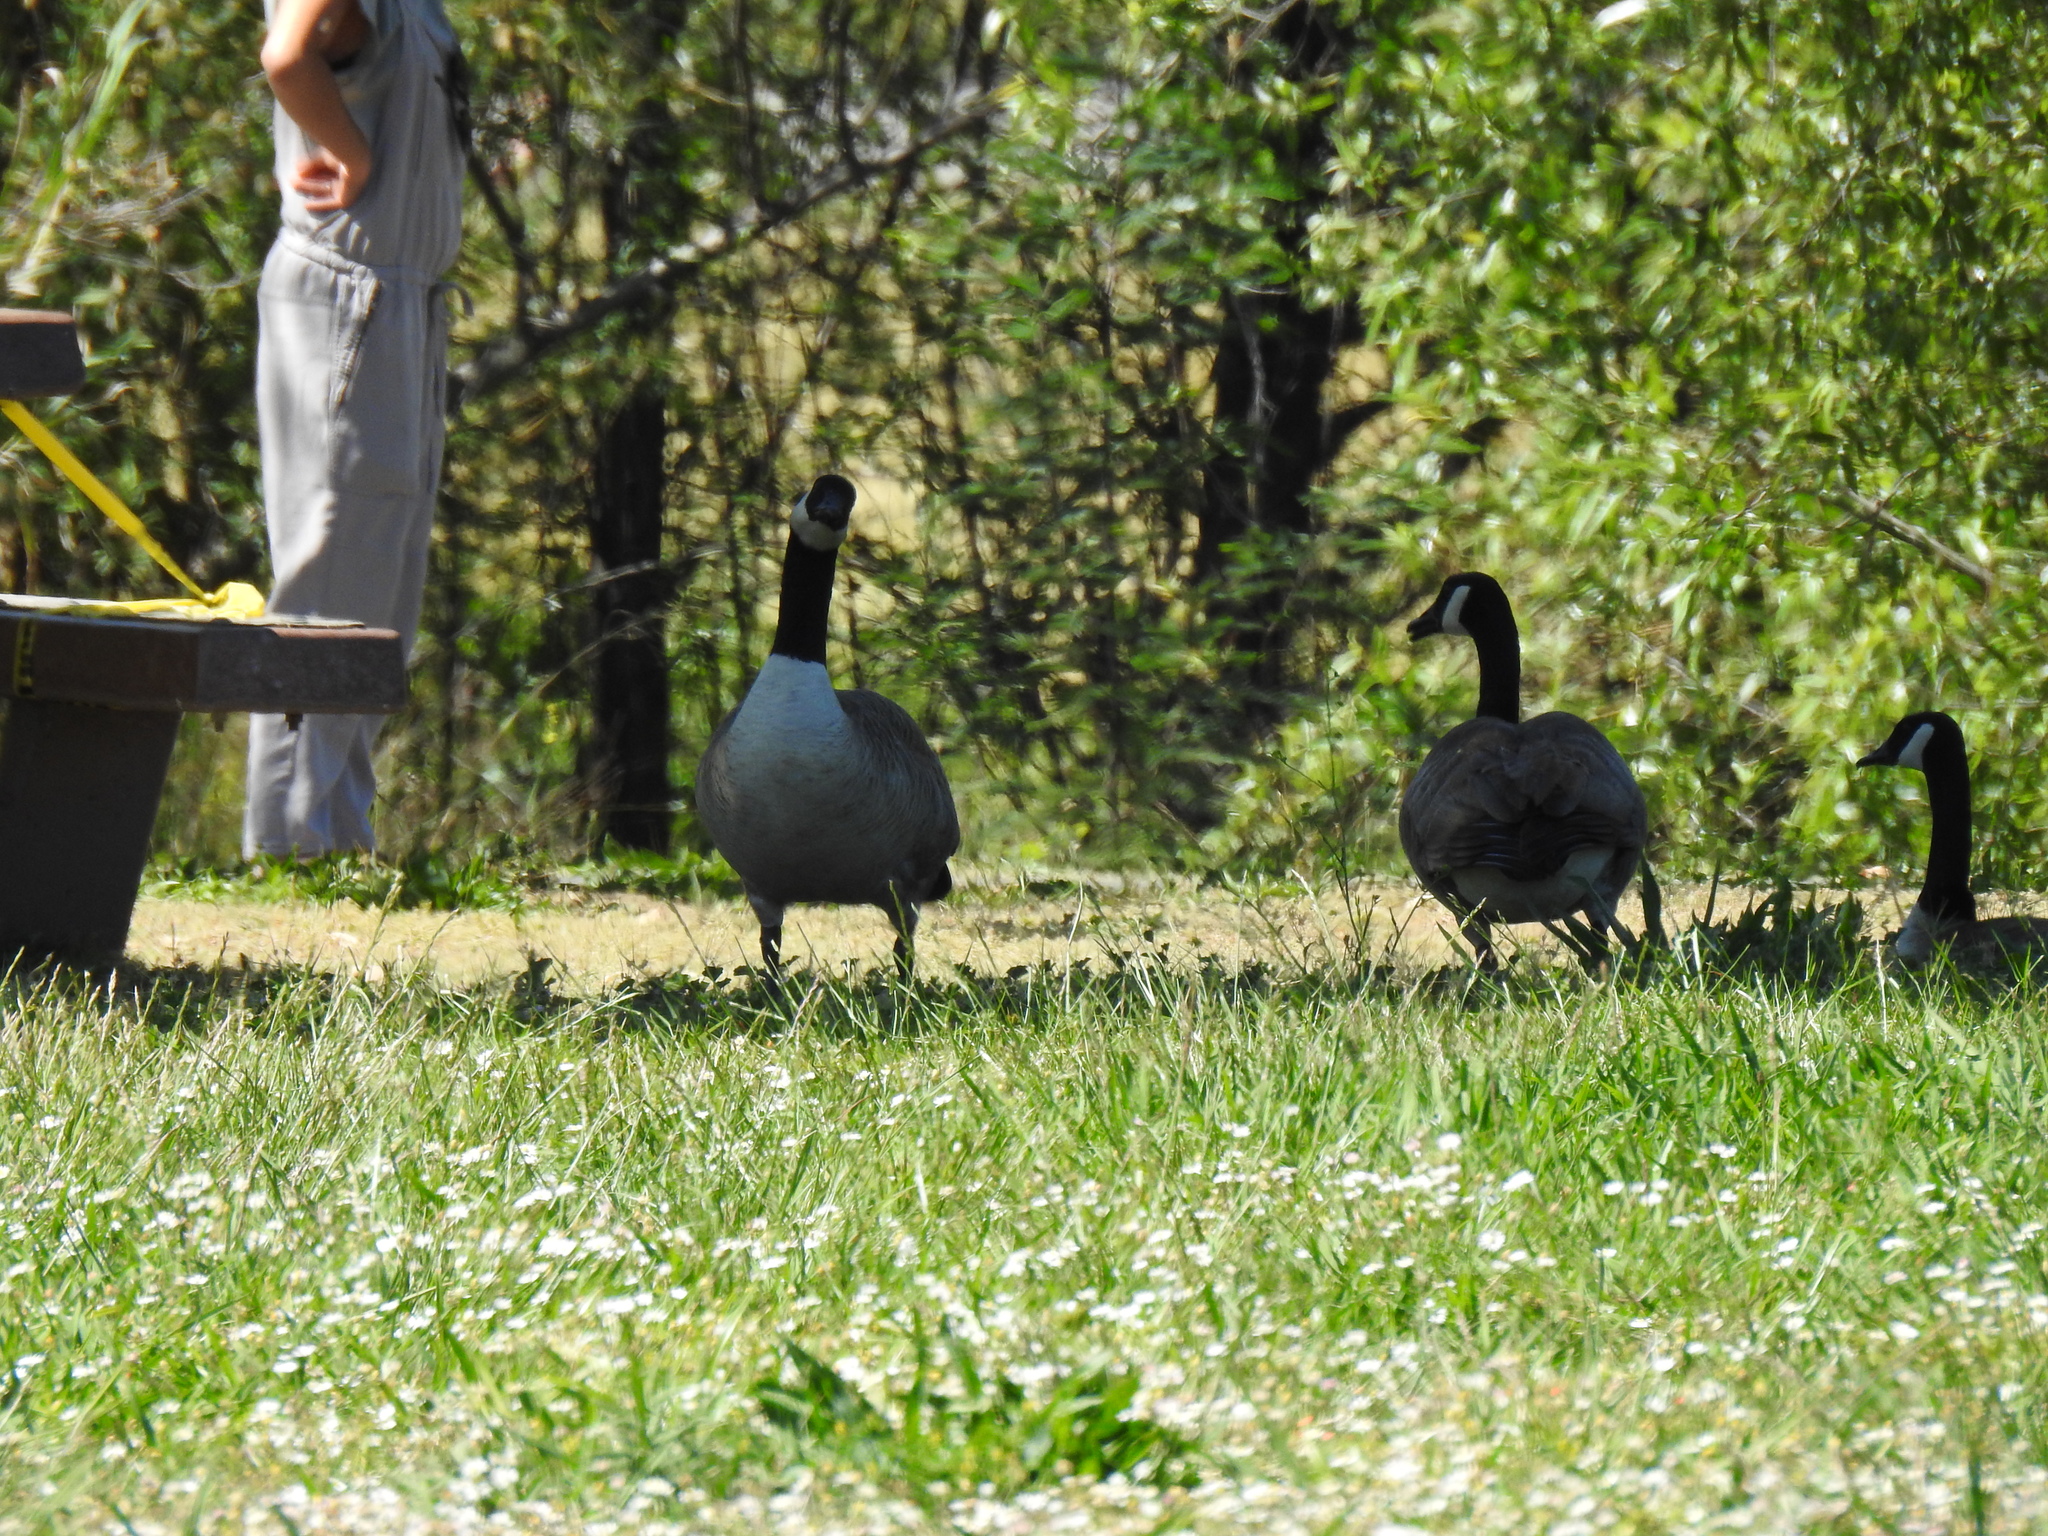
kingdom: Animalia
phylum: Chordata
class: Aves
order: Anseriformes
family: Anatidae
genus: Branta
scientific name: Branta canadensis
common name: Canada goose
